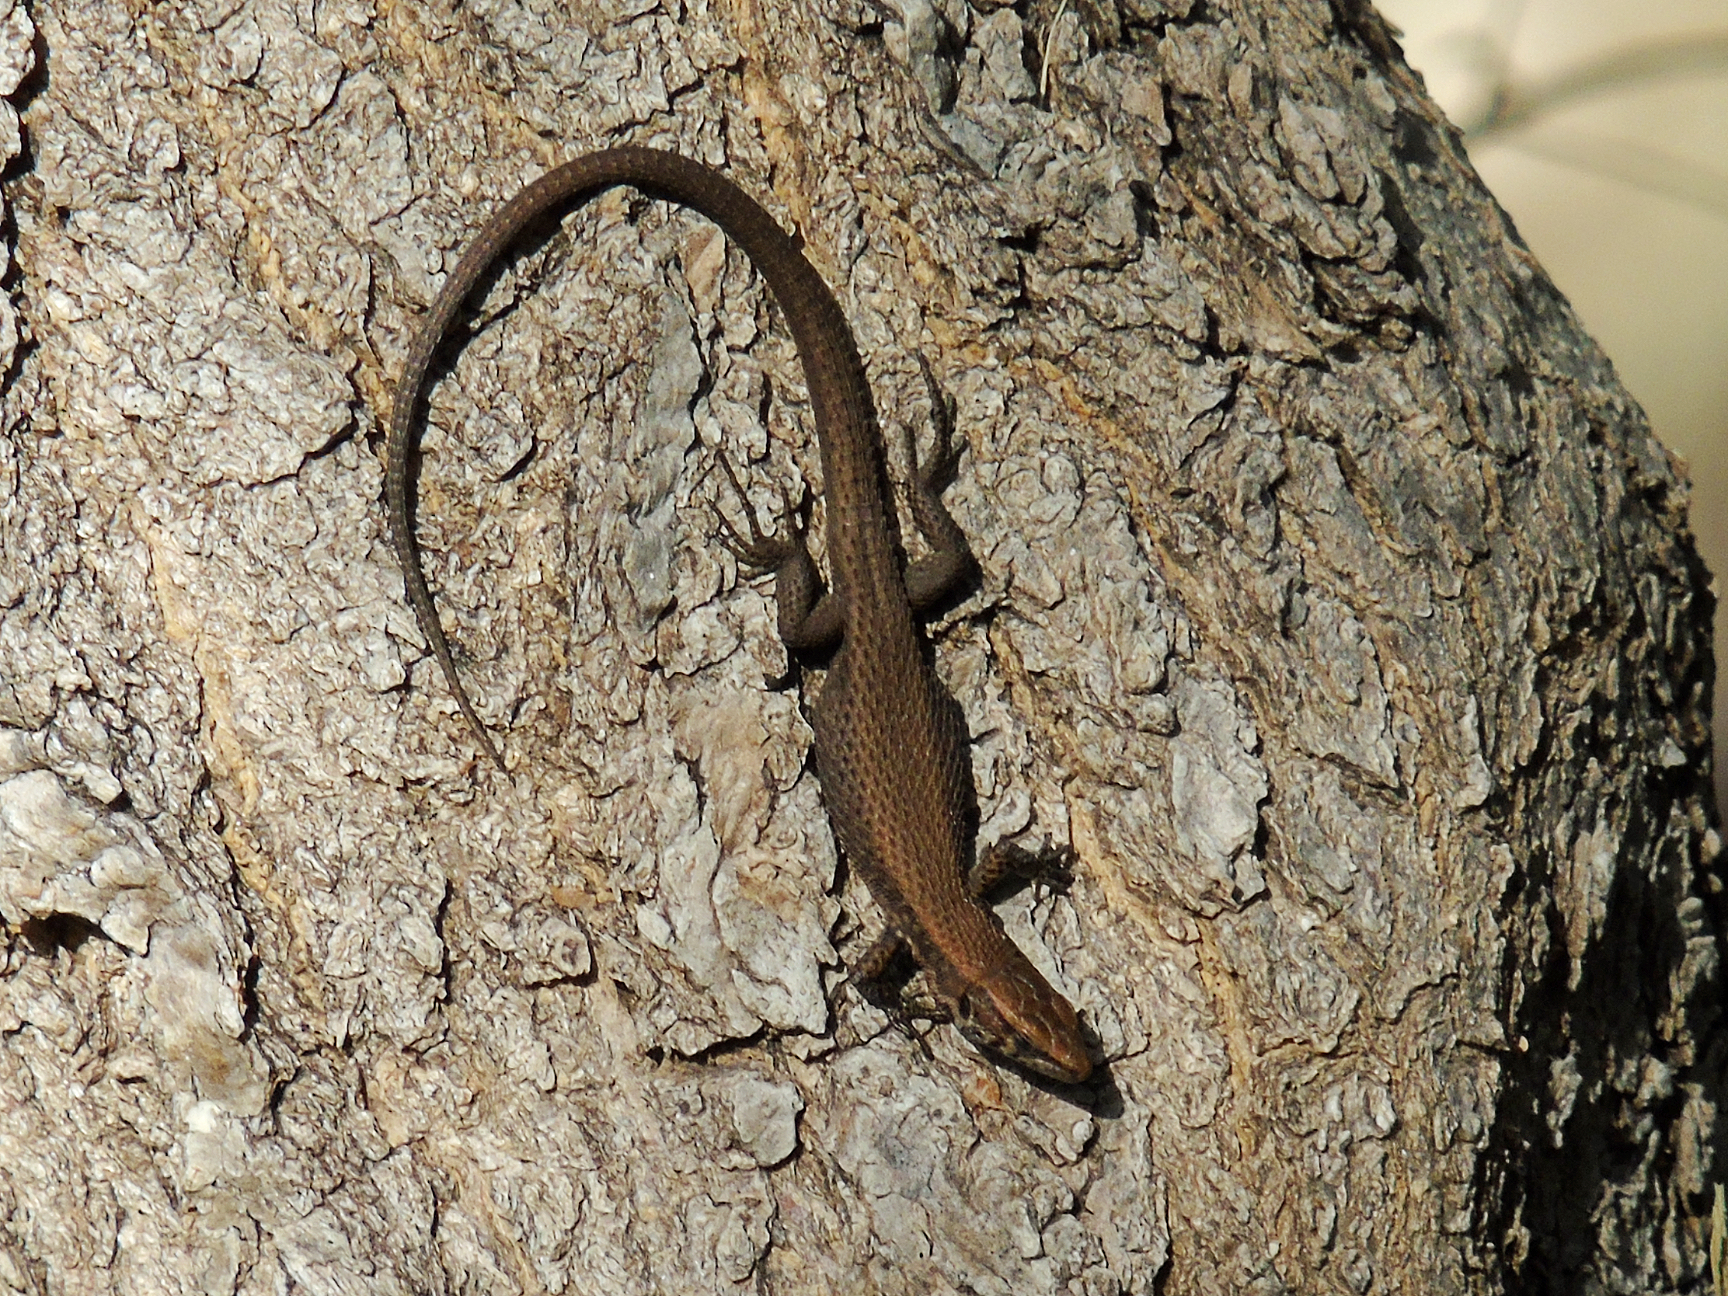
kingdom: Animalia
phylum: Chordata
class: Squamata
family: Lacertidae
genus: Algyroides
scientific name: Algyroides moreoticus
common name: Greek algyroides
